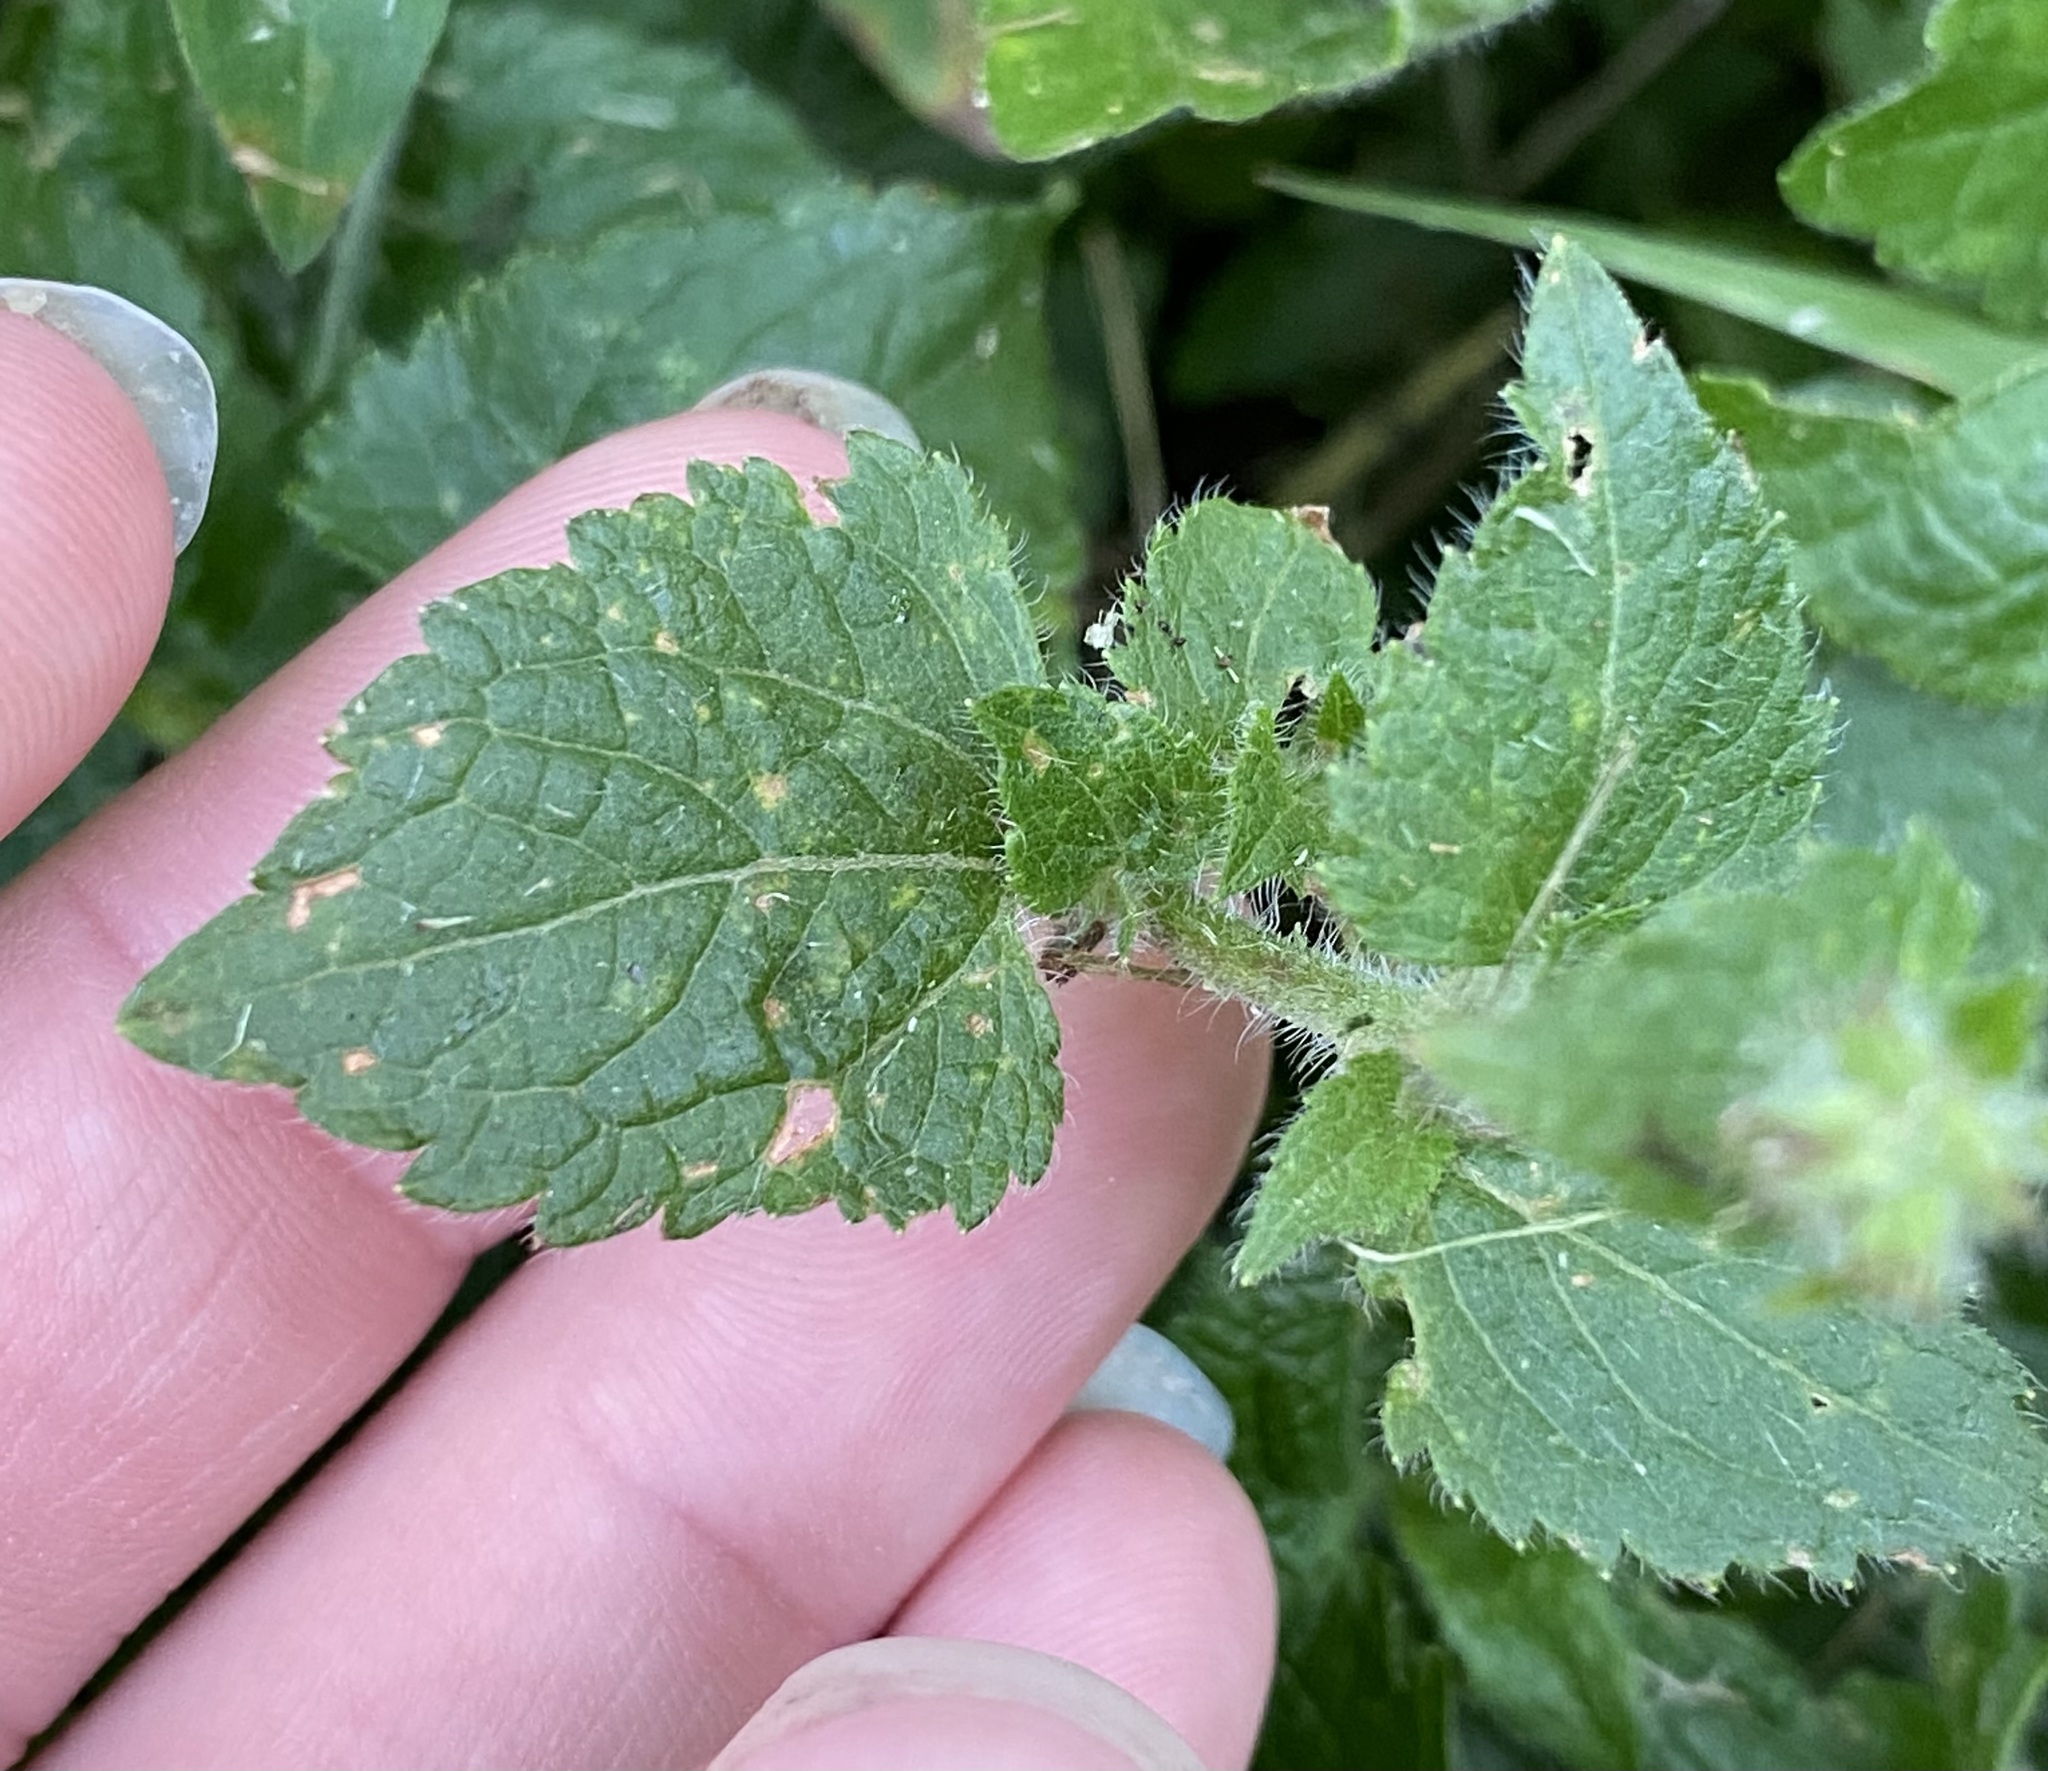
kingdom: Plantae
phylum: Tracheophyta
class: Magnoliopsida
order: Asterales
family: Asteraceae
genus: Ageratum
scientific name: Ageratum houstonianum
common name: Bluemink
